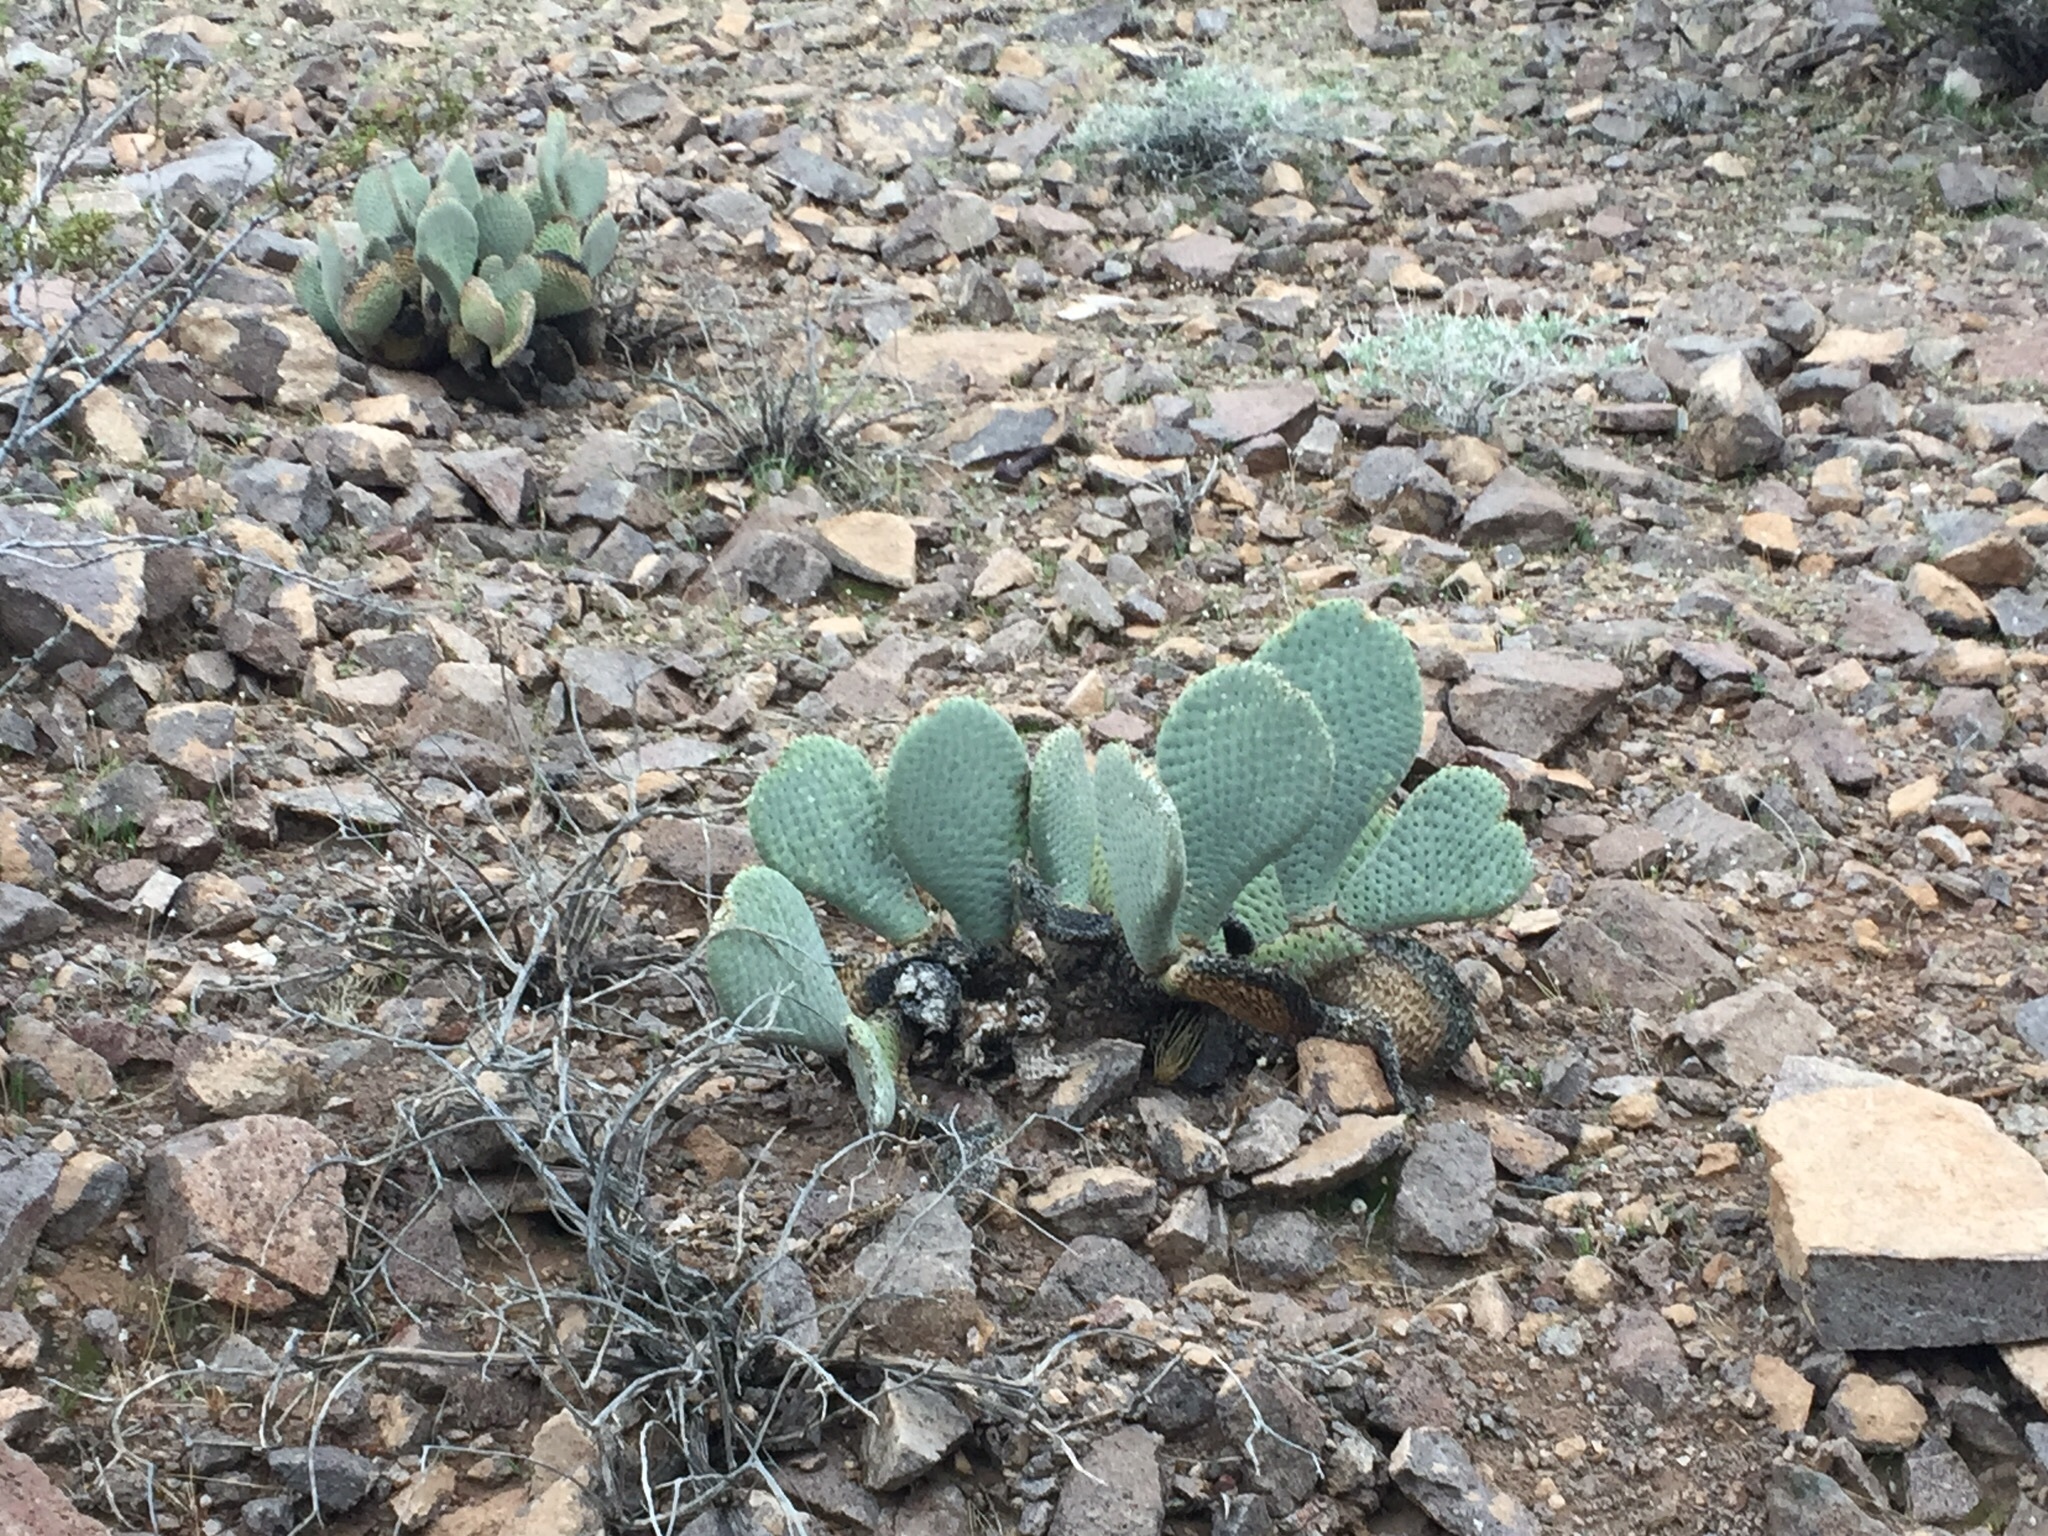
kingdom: Plantae
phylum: Tracheophyta
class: Magnoliopsida
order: Caryophyllales
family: Cactaceae
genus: Opuntia
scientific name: Opuntia basilaris
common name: Beavertail prickly-pear
